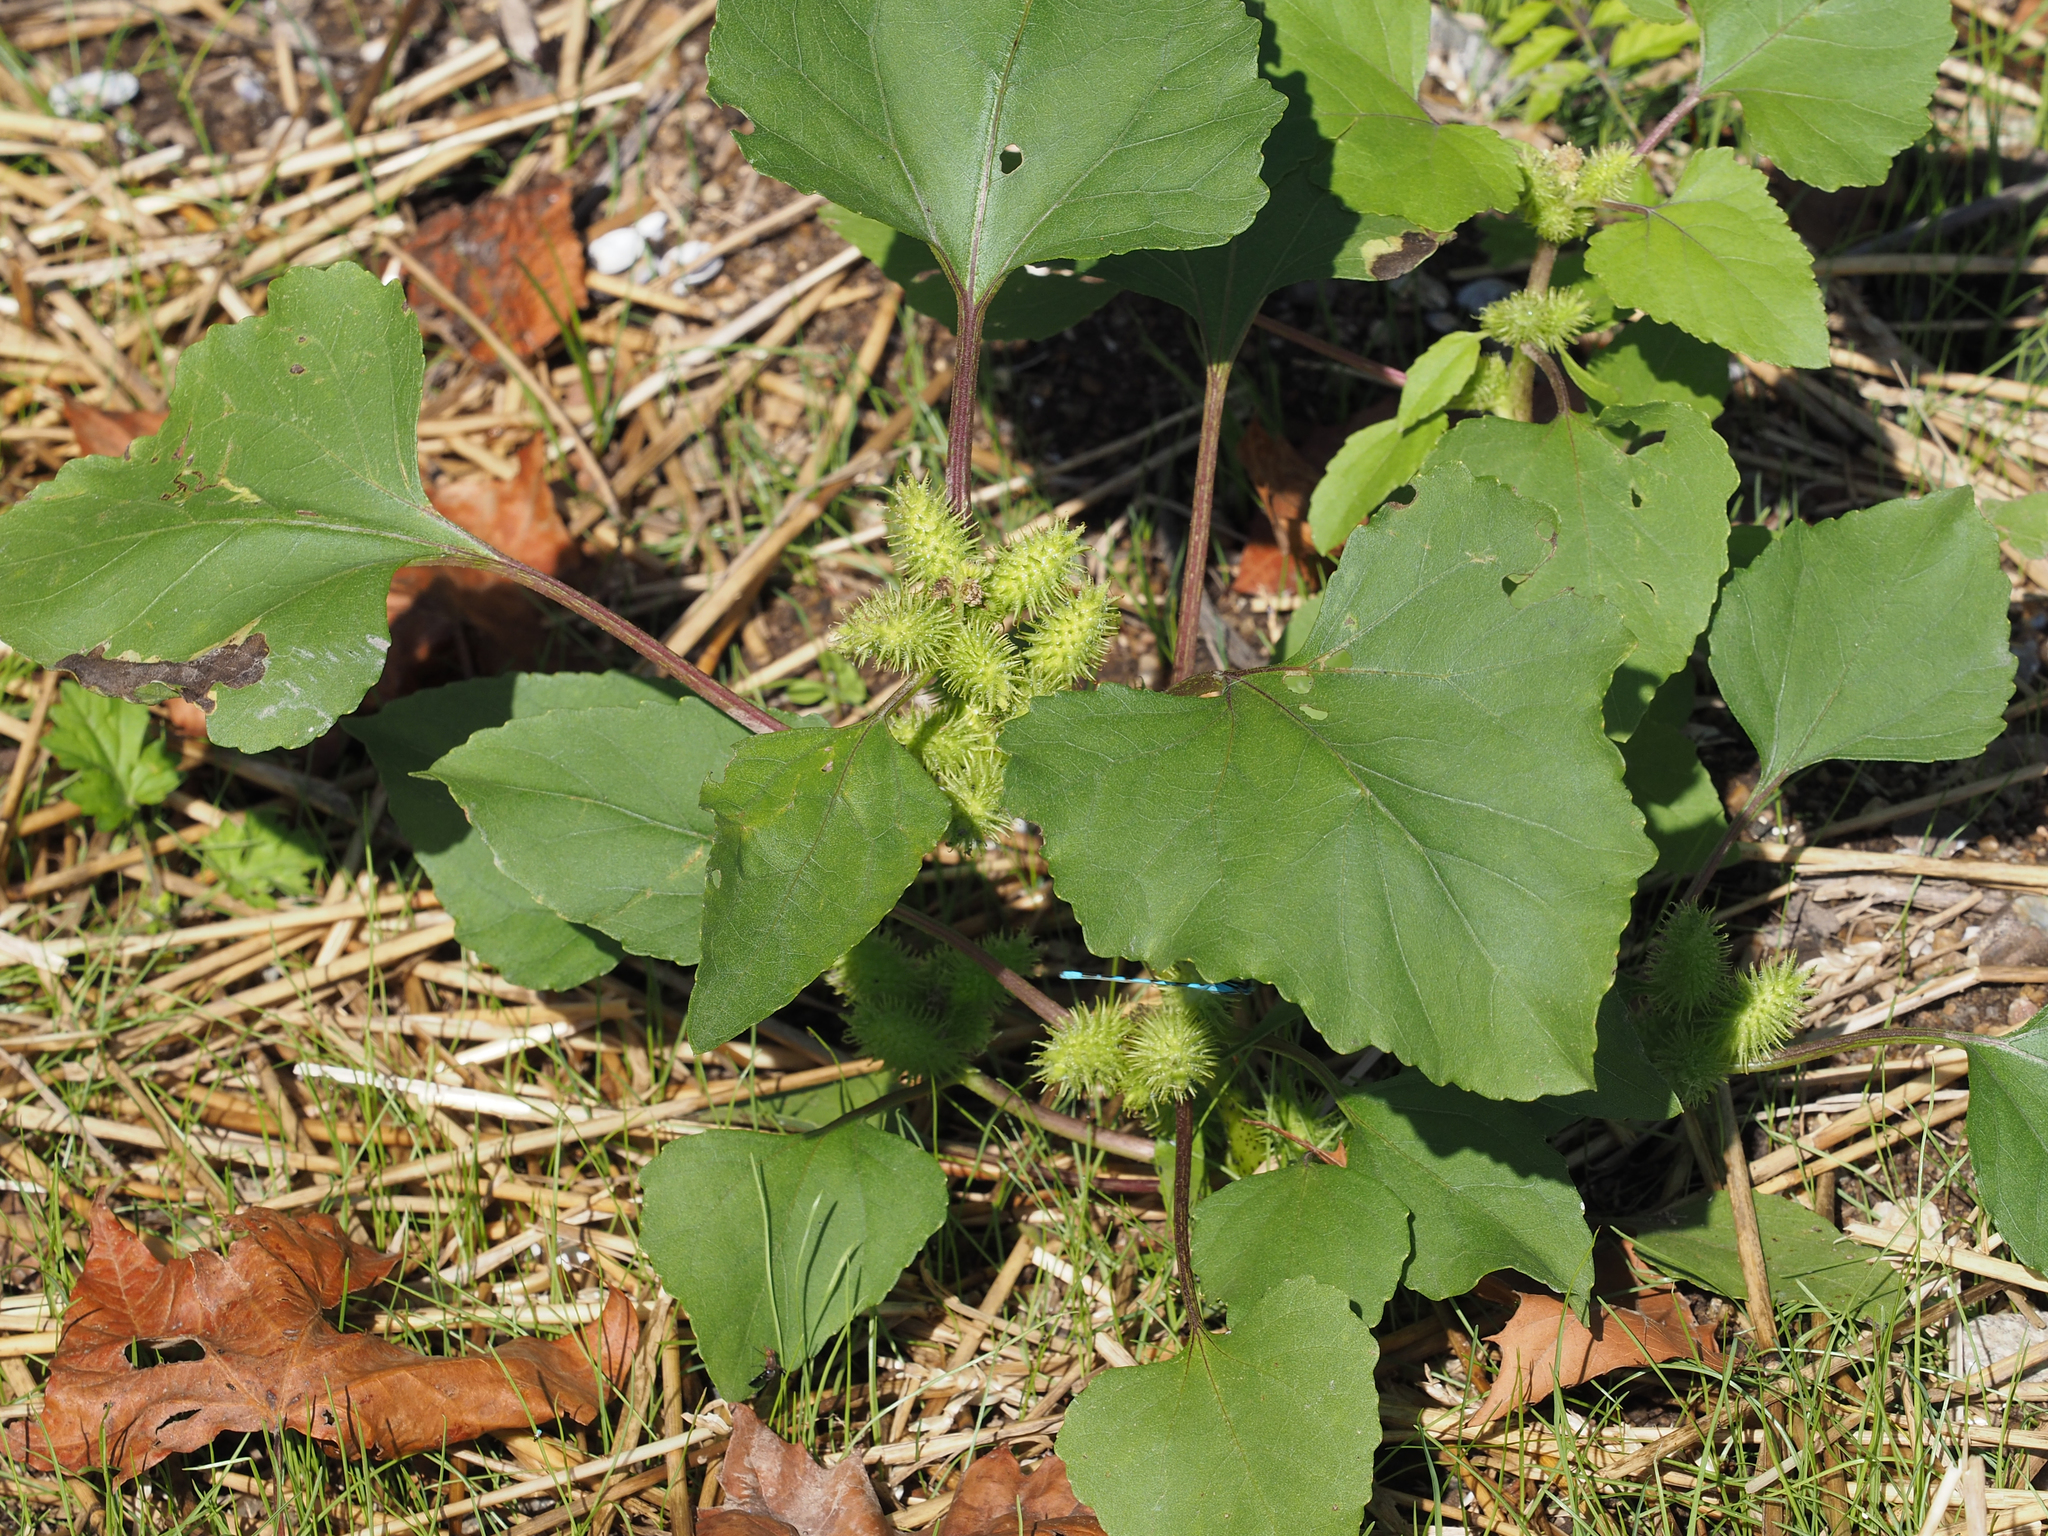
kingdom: Plantae
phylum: Tracheophyta
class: Magnoliopsida
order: Asterales
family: Asteraceae
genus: Xanthium
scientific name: Xanthium strumarium
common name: Rough cocklebur
